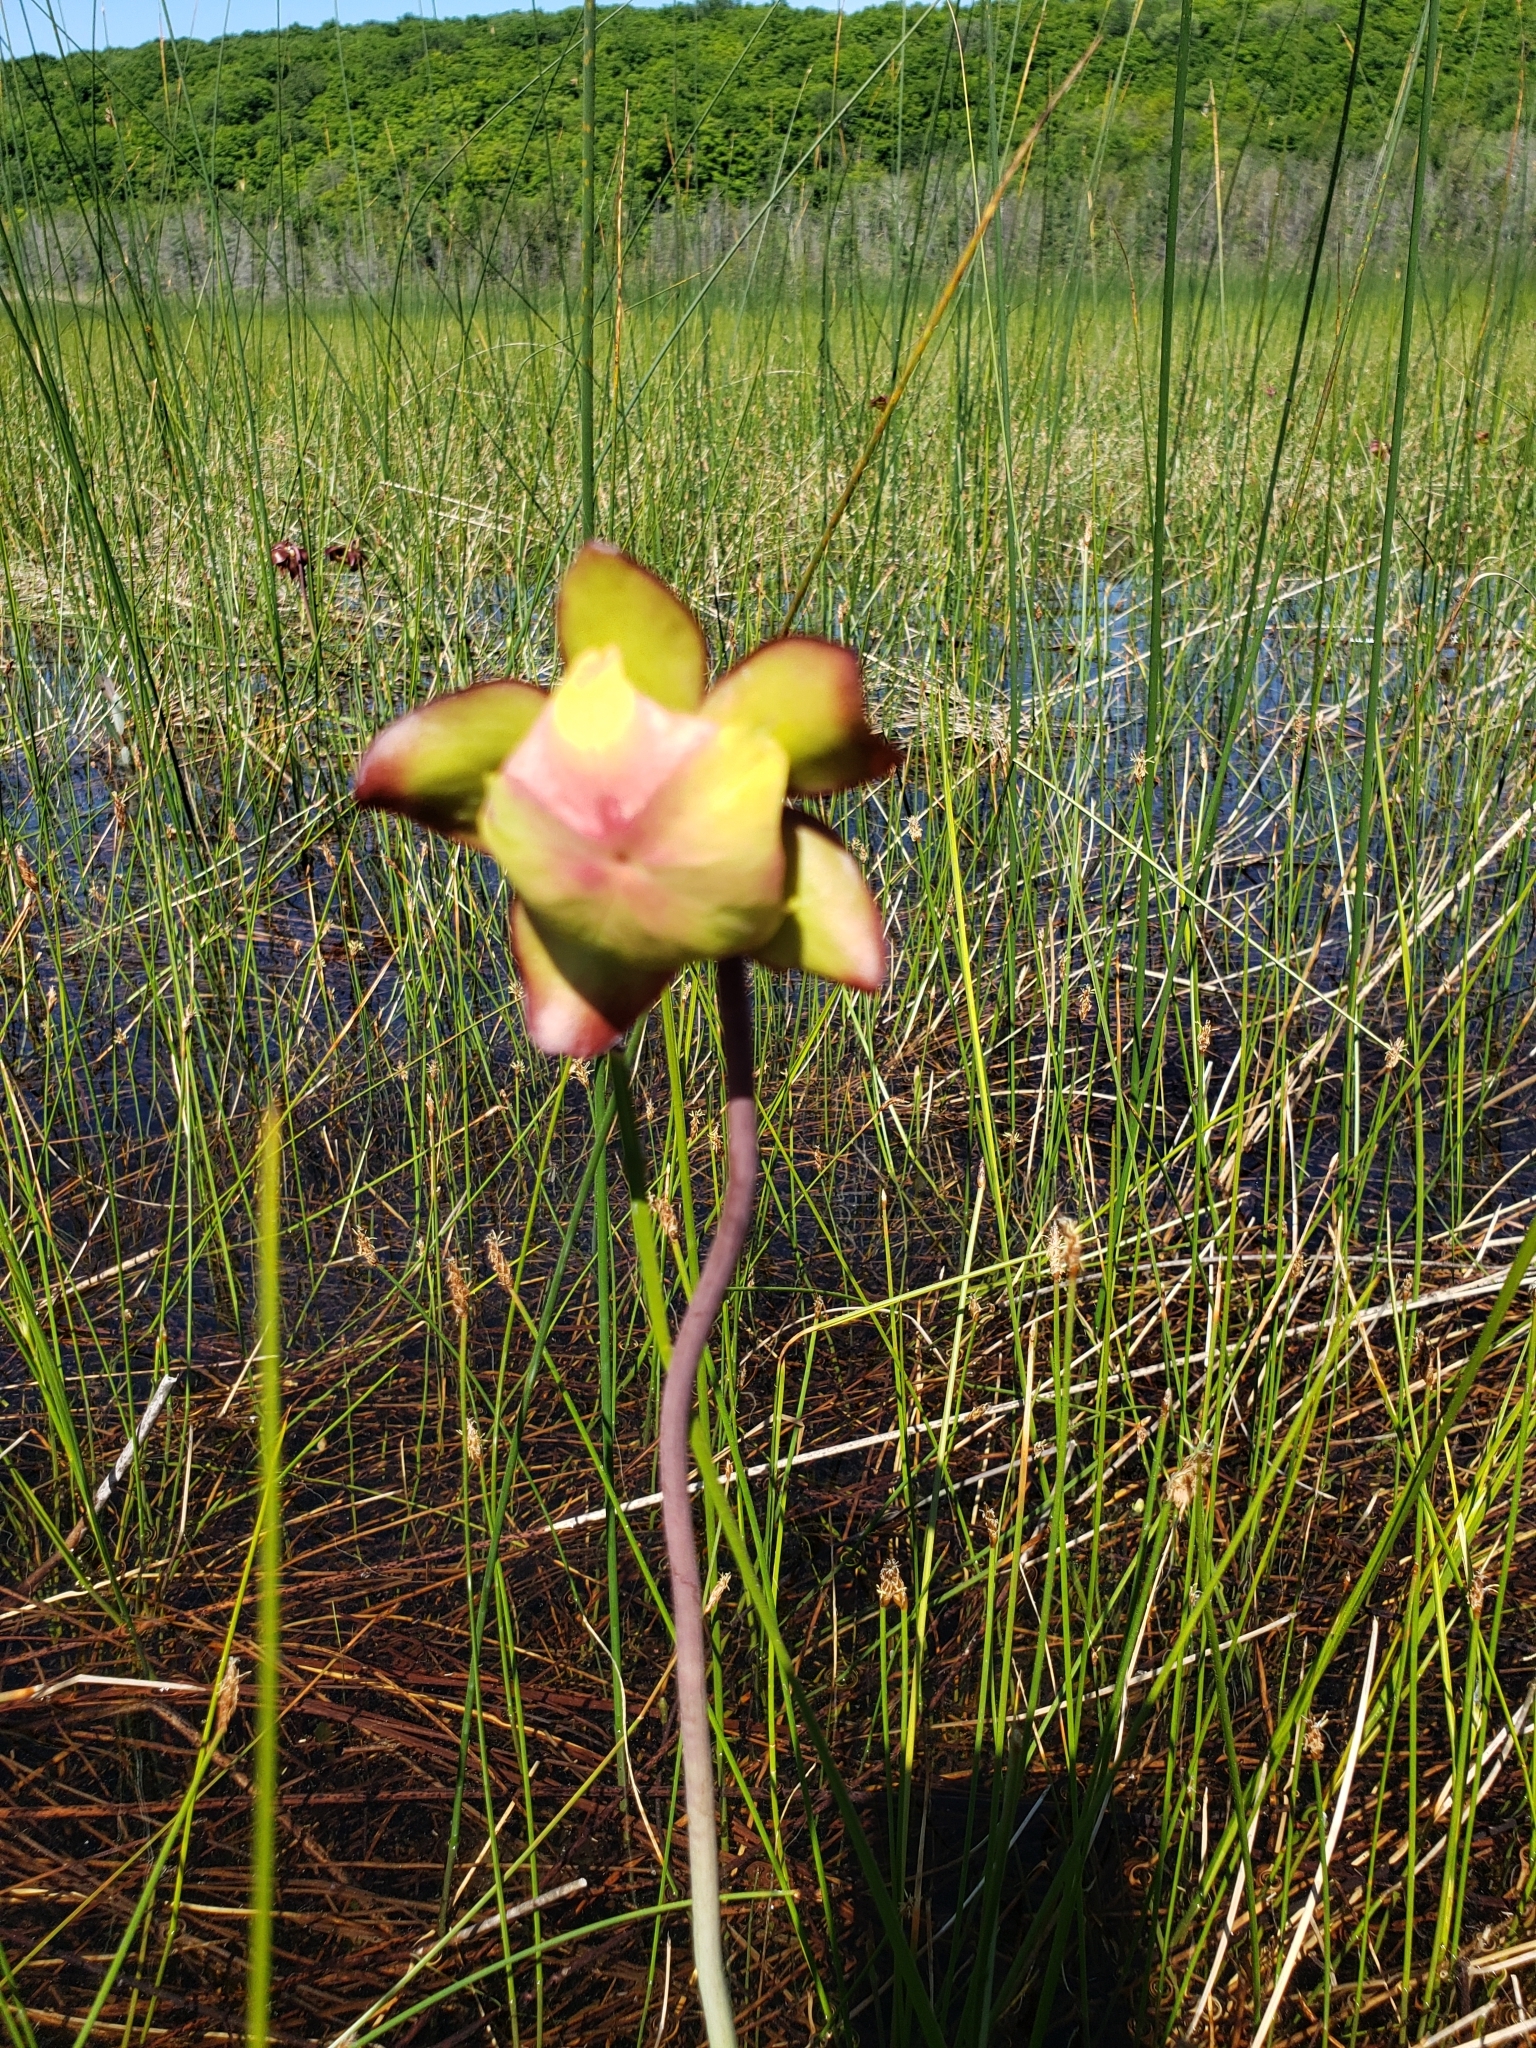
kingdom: Plantae
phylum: Tracheophyta
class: Magnoliopsida
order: Ericales
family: Sarraceniaceae
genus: Sarracenia
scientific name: Sarracenia purpurea
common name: Pitcherplant
